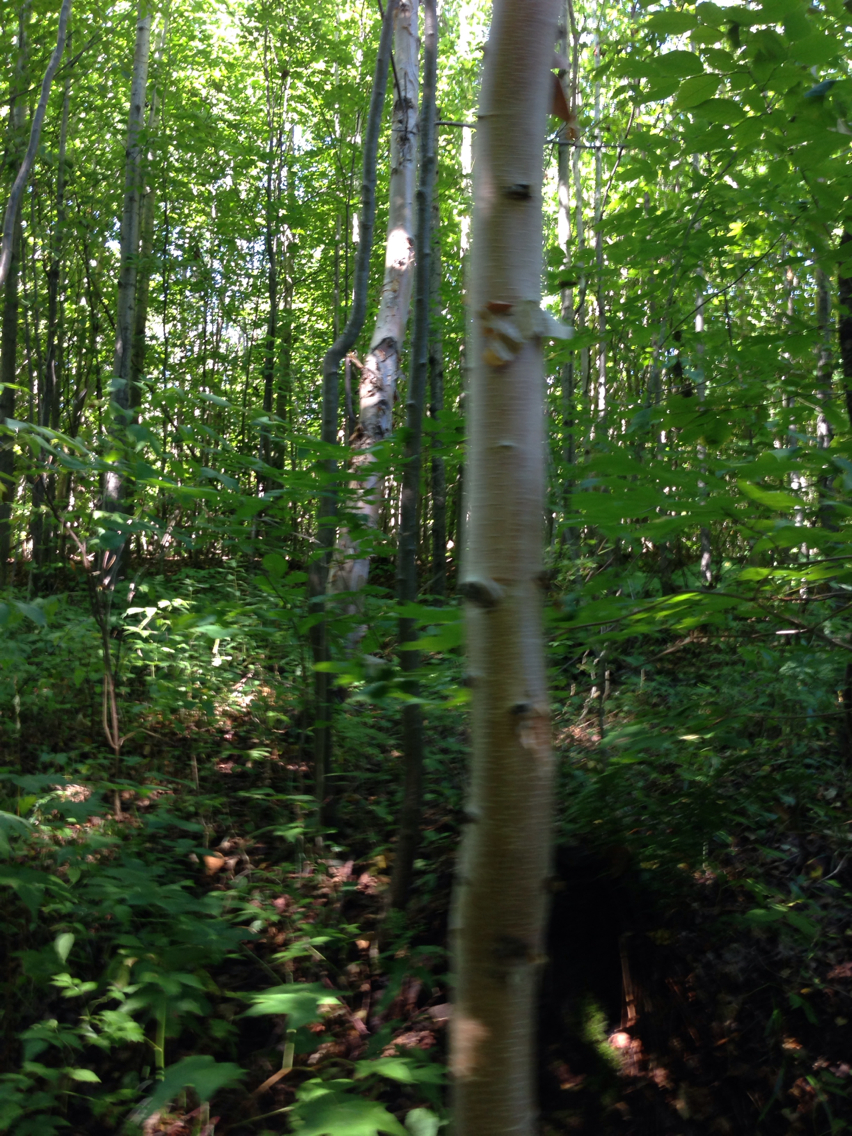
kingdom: Plantae
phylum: Tracheophyta
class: Magnoliopsida
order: Fagales
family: Betulaceae
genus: Betula
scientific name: Betula papyrifera
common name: Paper birch
